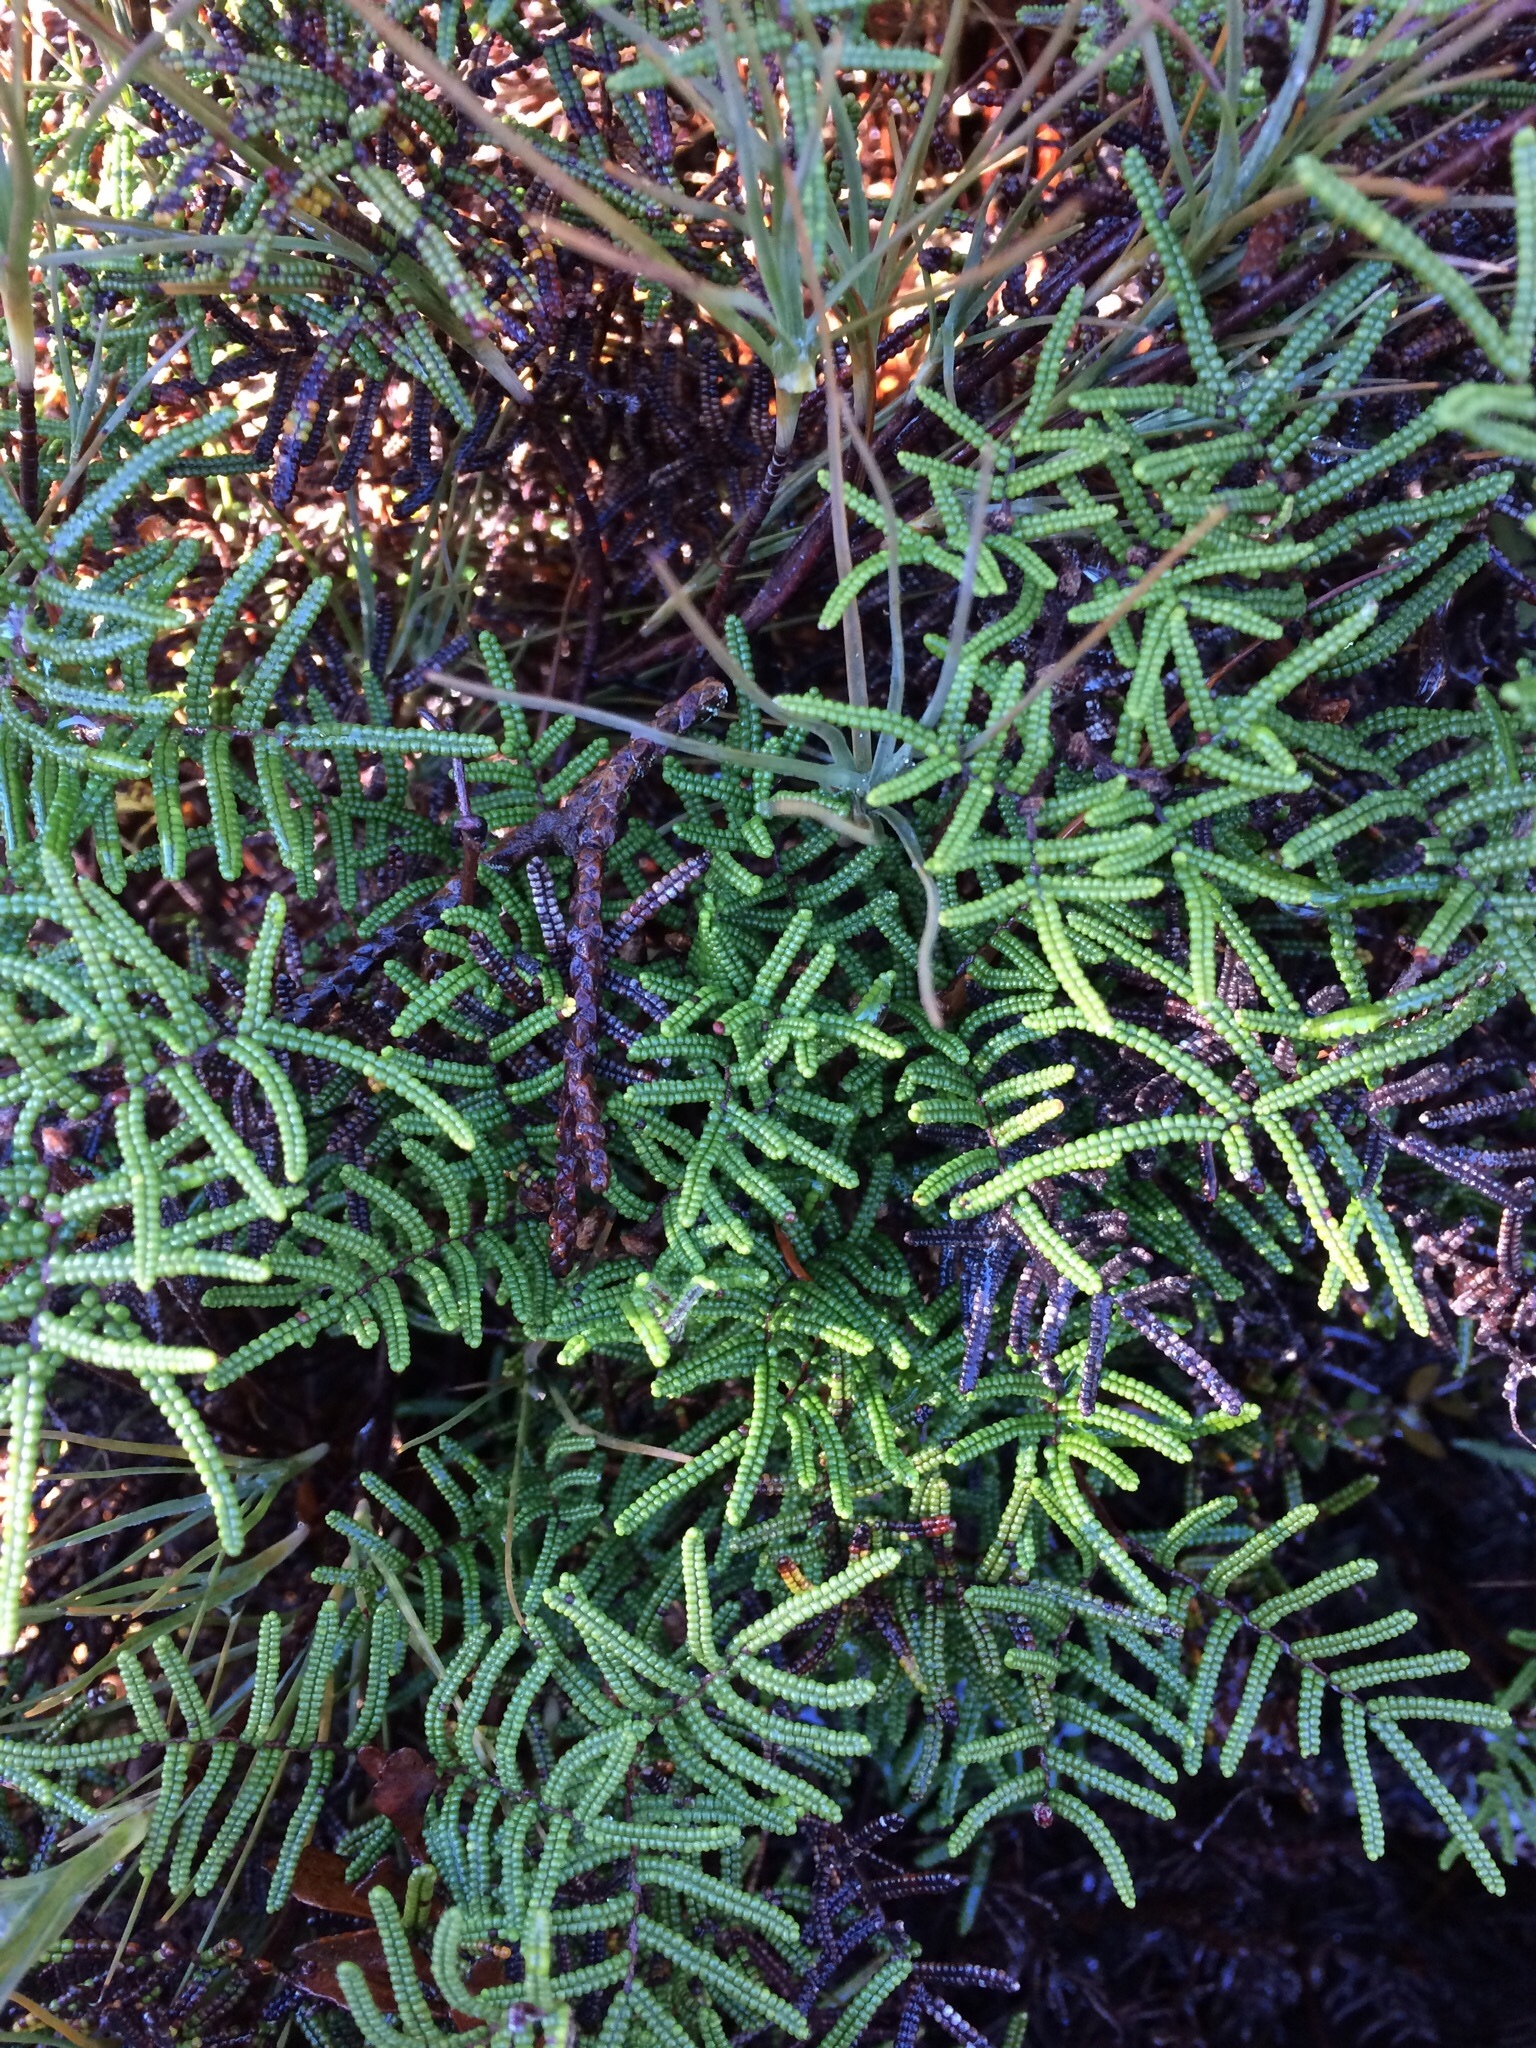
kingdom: Plantae
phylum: Tracheophyta
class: Polypodiopsida
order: Gleicheniales
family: Gleicheniaceae
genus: Gleichenia
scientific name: Gleichenia alpina
